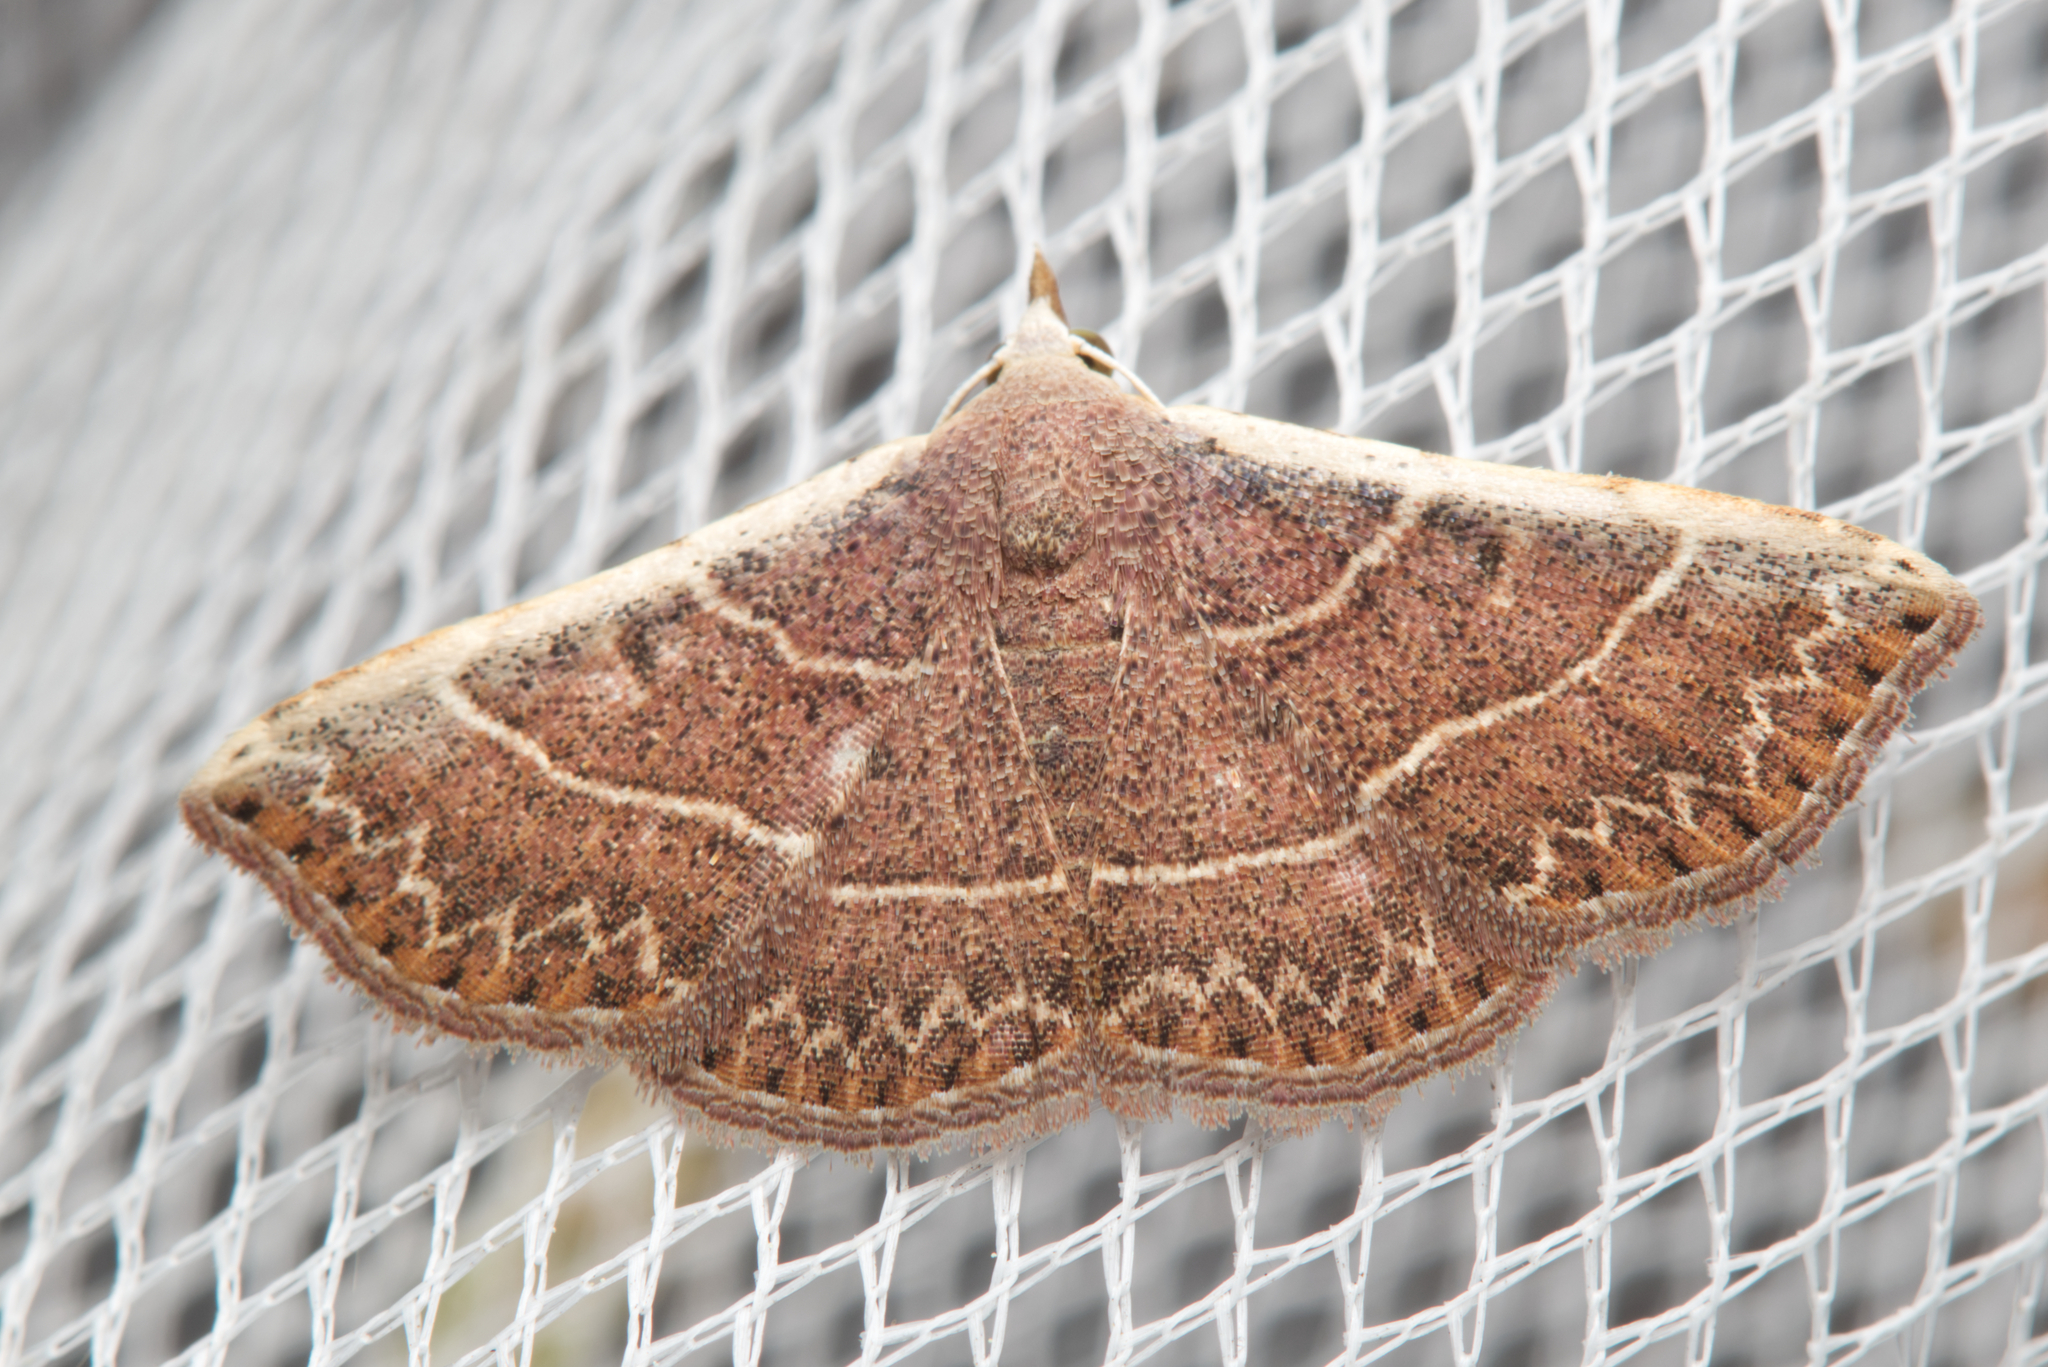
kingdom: Animalia
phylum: Arthropoda
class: Insecta
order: Lepidoptera
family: Erebidae
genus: Corgatha
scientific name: Corgatha figuralis
